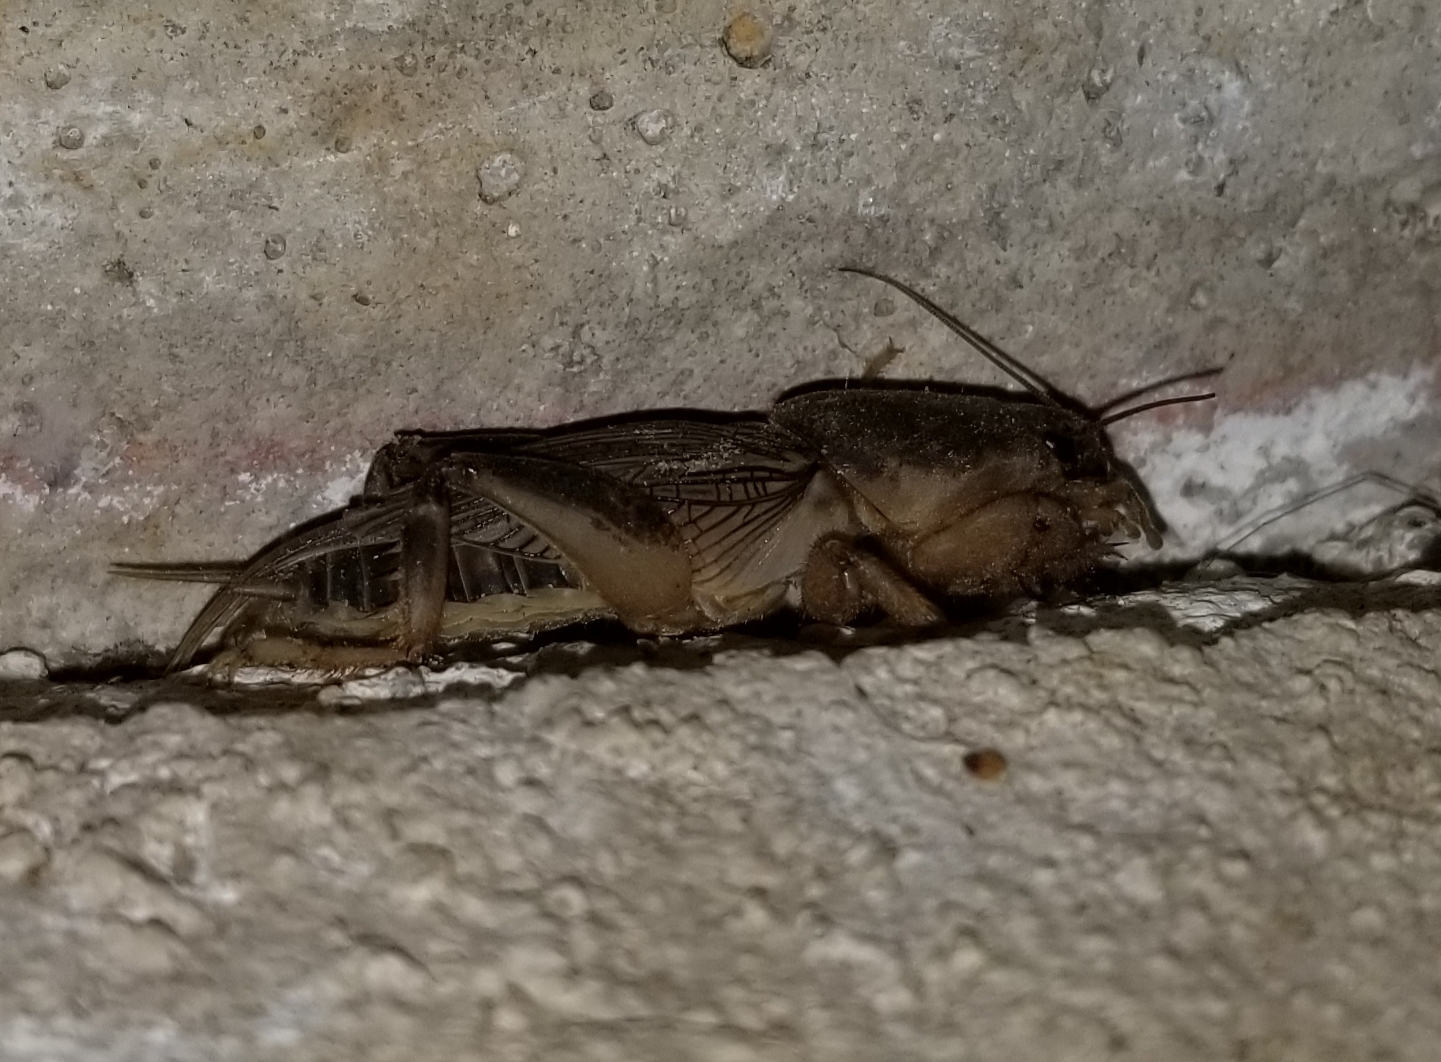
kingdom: Animalia
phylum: Arthropoda
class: Insecta
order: Orthoptera
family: Gryllotalpidae
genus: Neoscapteriscus
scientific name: Neoscapteriscus borellii
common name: Southern mole cricket
